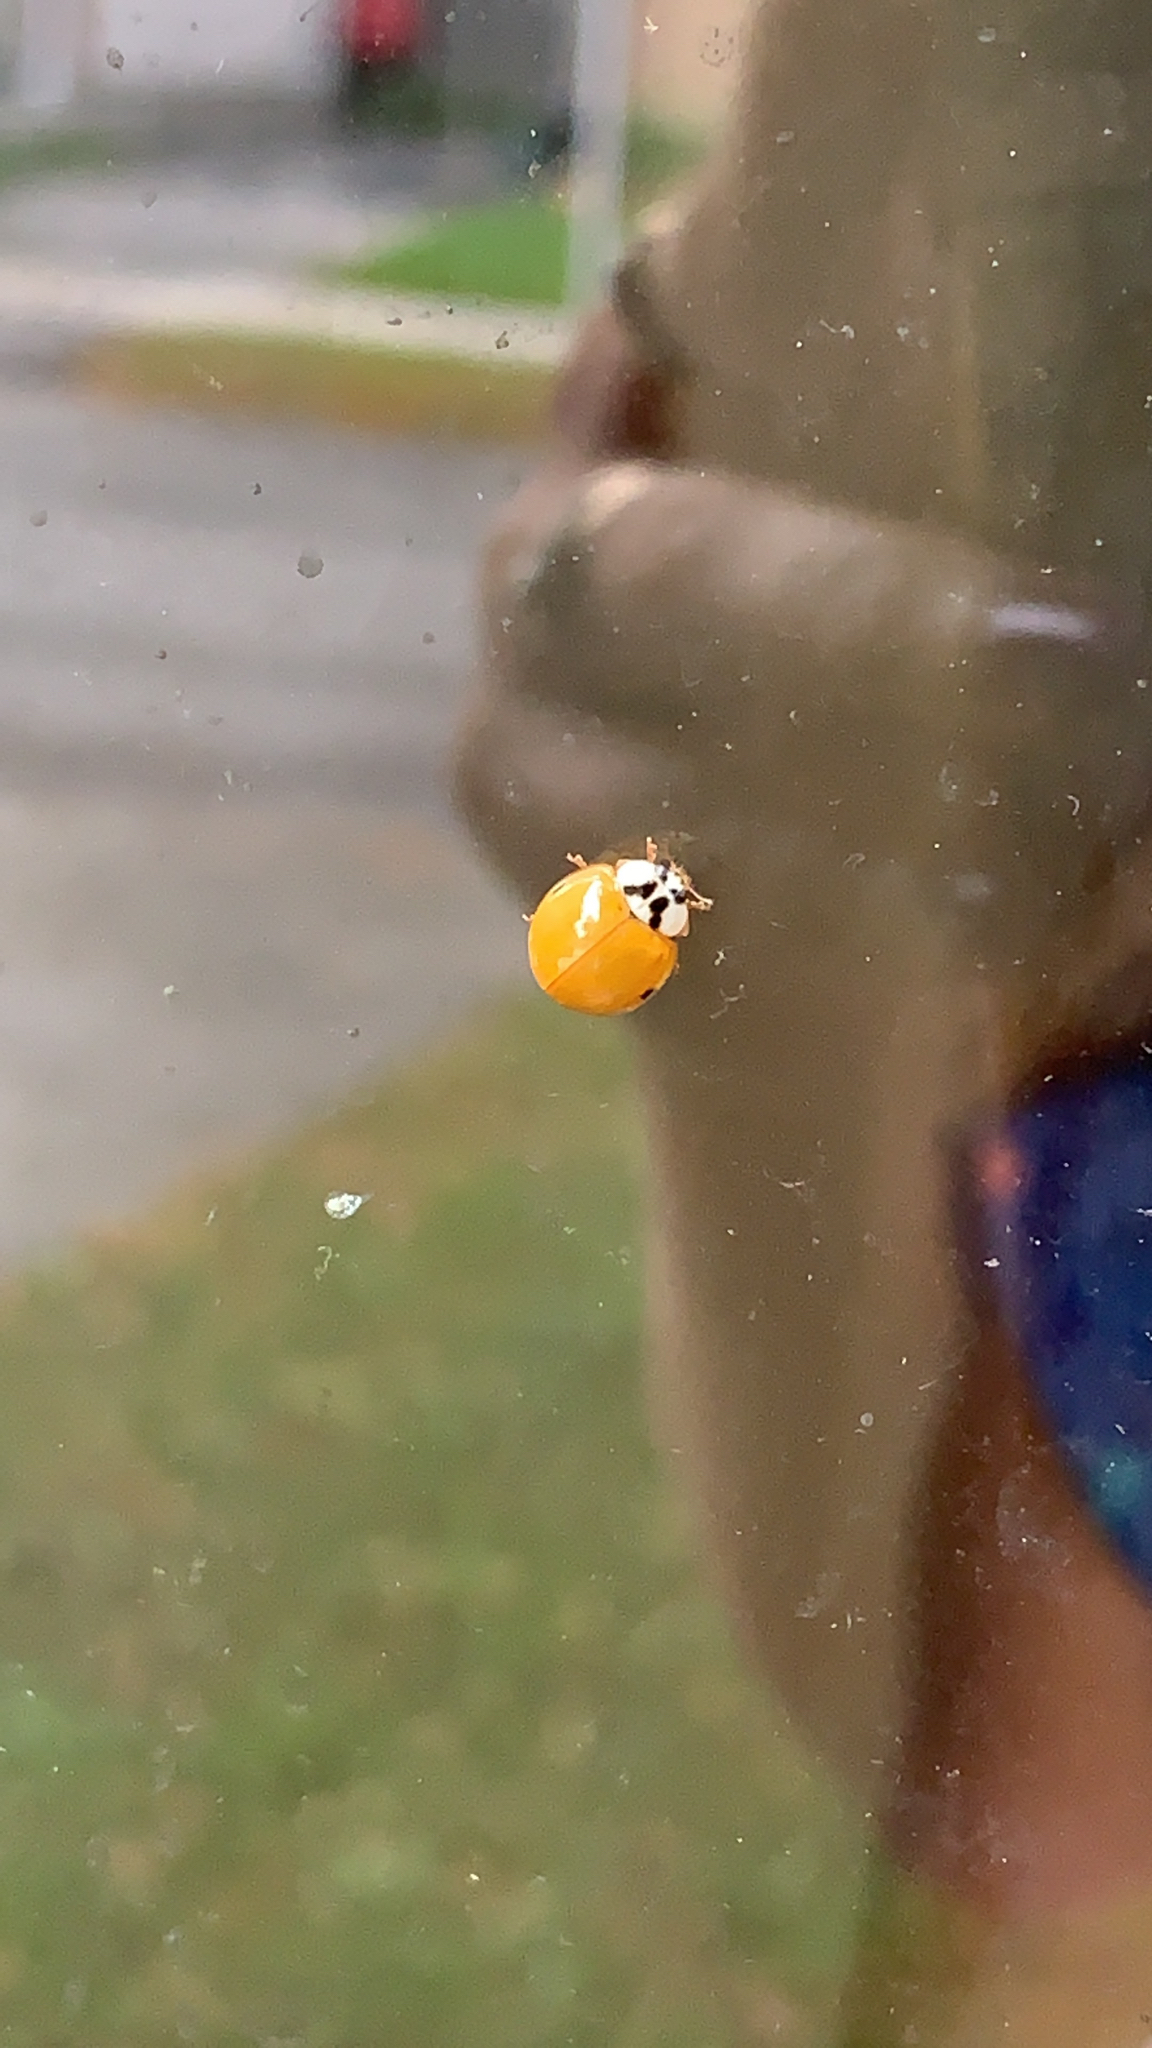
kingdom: Animalia
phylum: Arthropoda
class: Insecta
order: Coleoptera
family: Coccinellidae
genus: Harmonia
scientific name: Harmonia axyridis
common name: Harlequin ladybird
